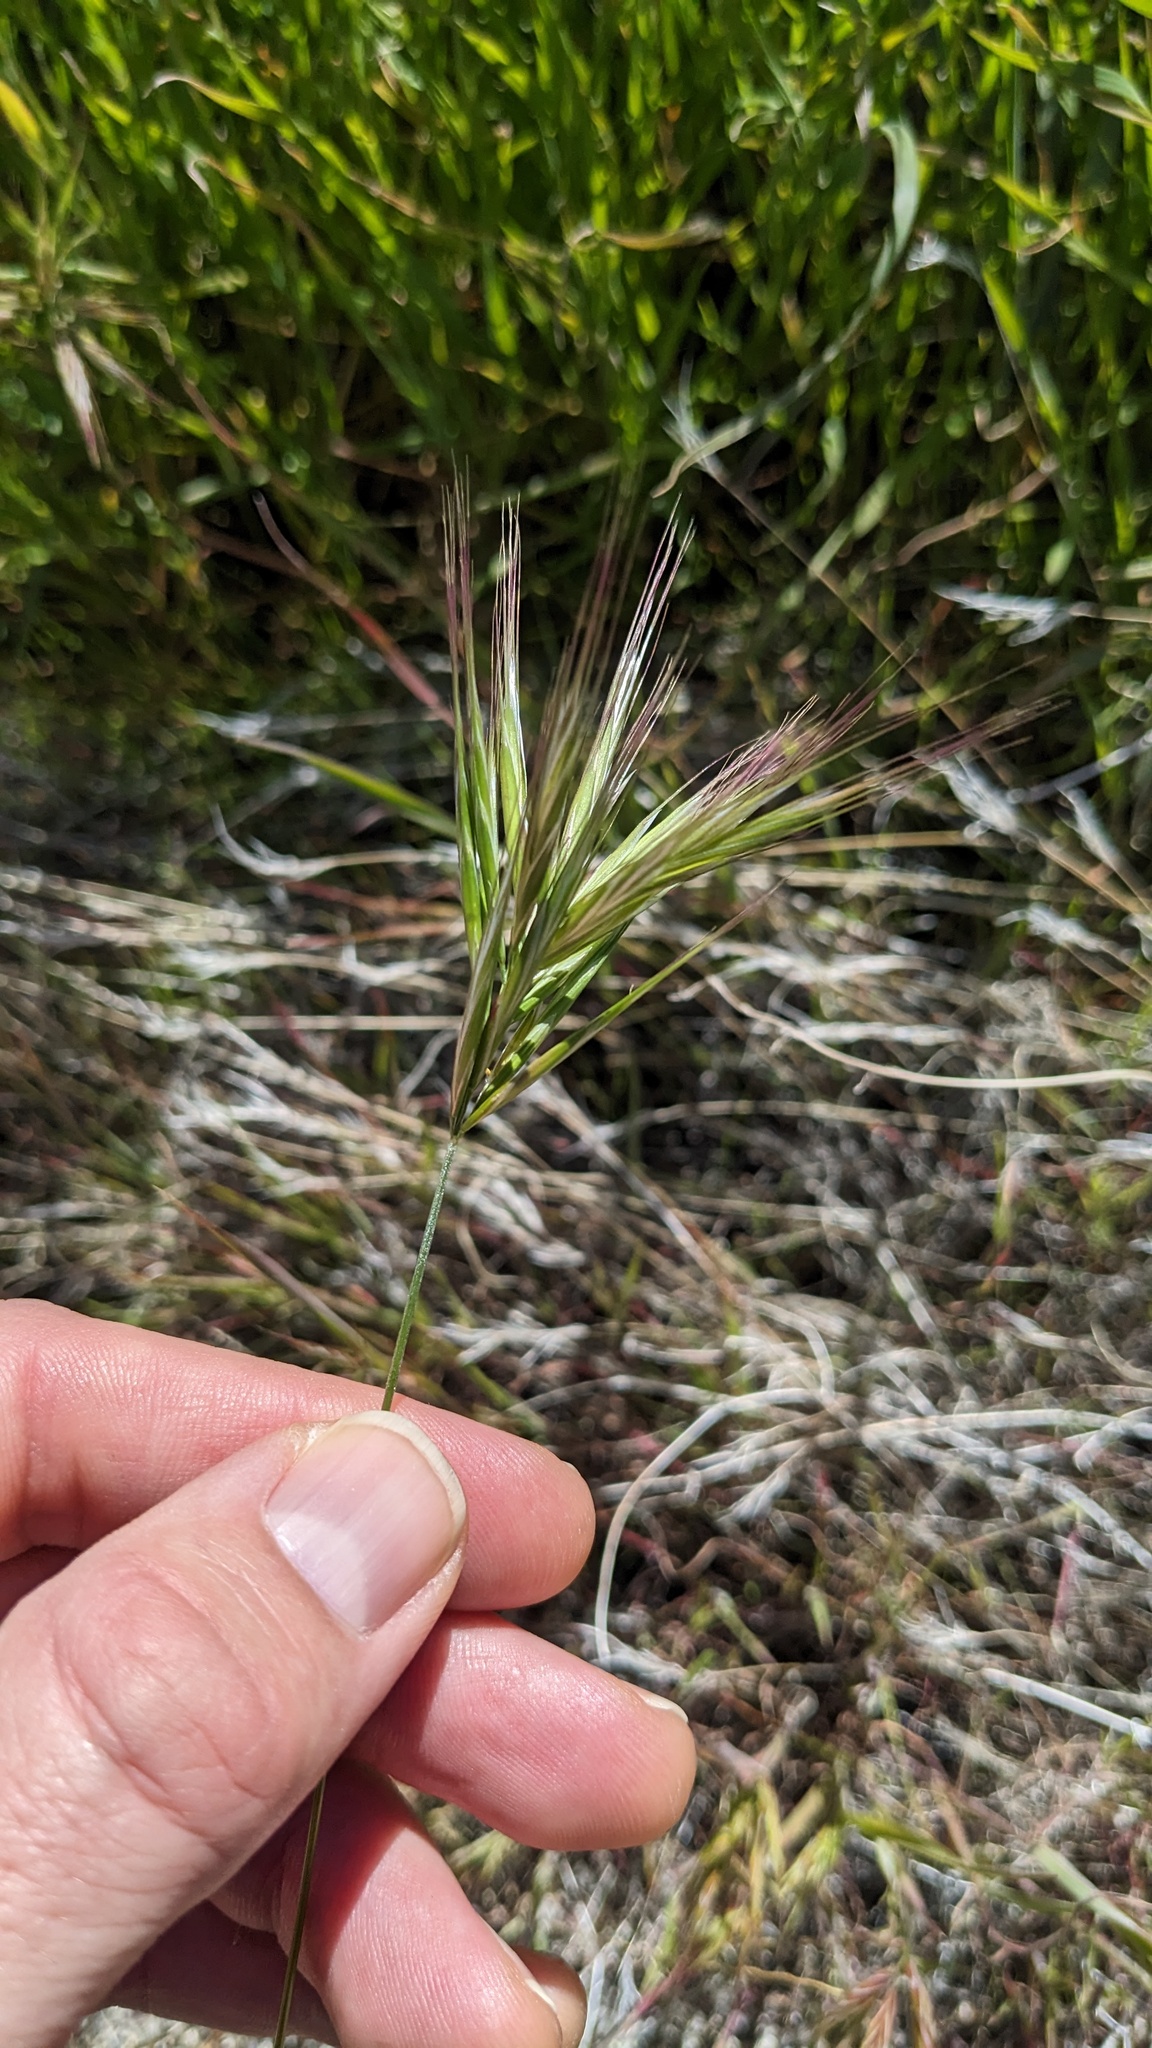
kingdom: Plantae
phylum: Tracheophyta
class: Liliopsida
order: Poales
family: Poaceae
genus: Bromus
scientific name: Bromus rubens
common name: Red brome
